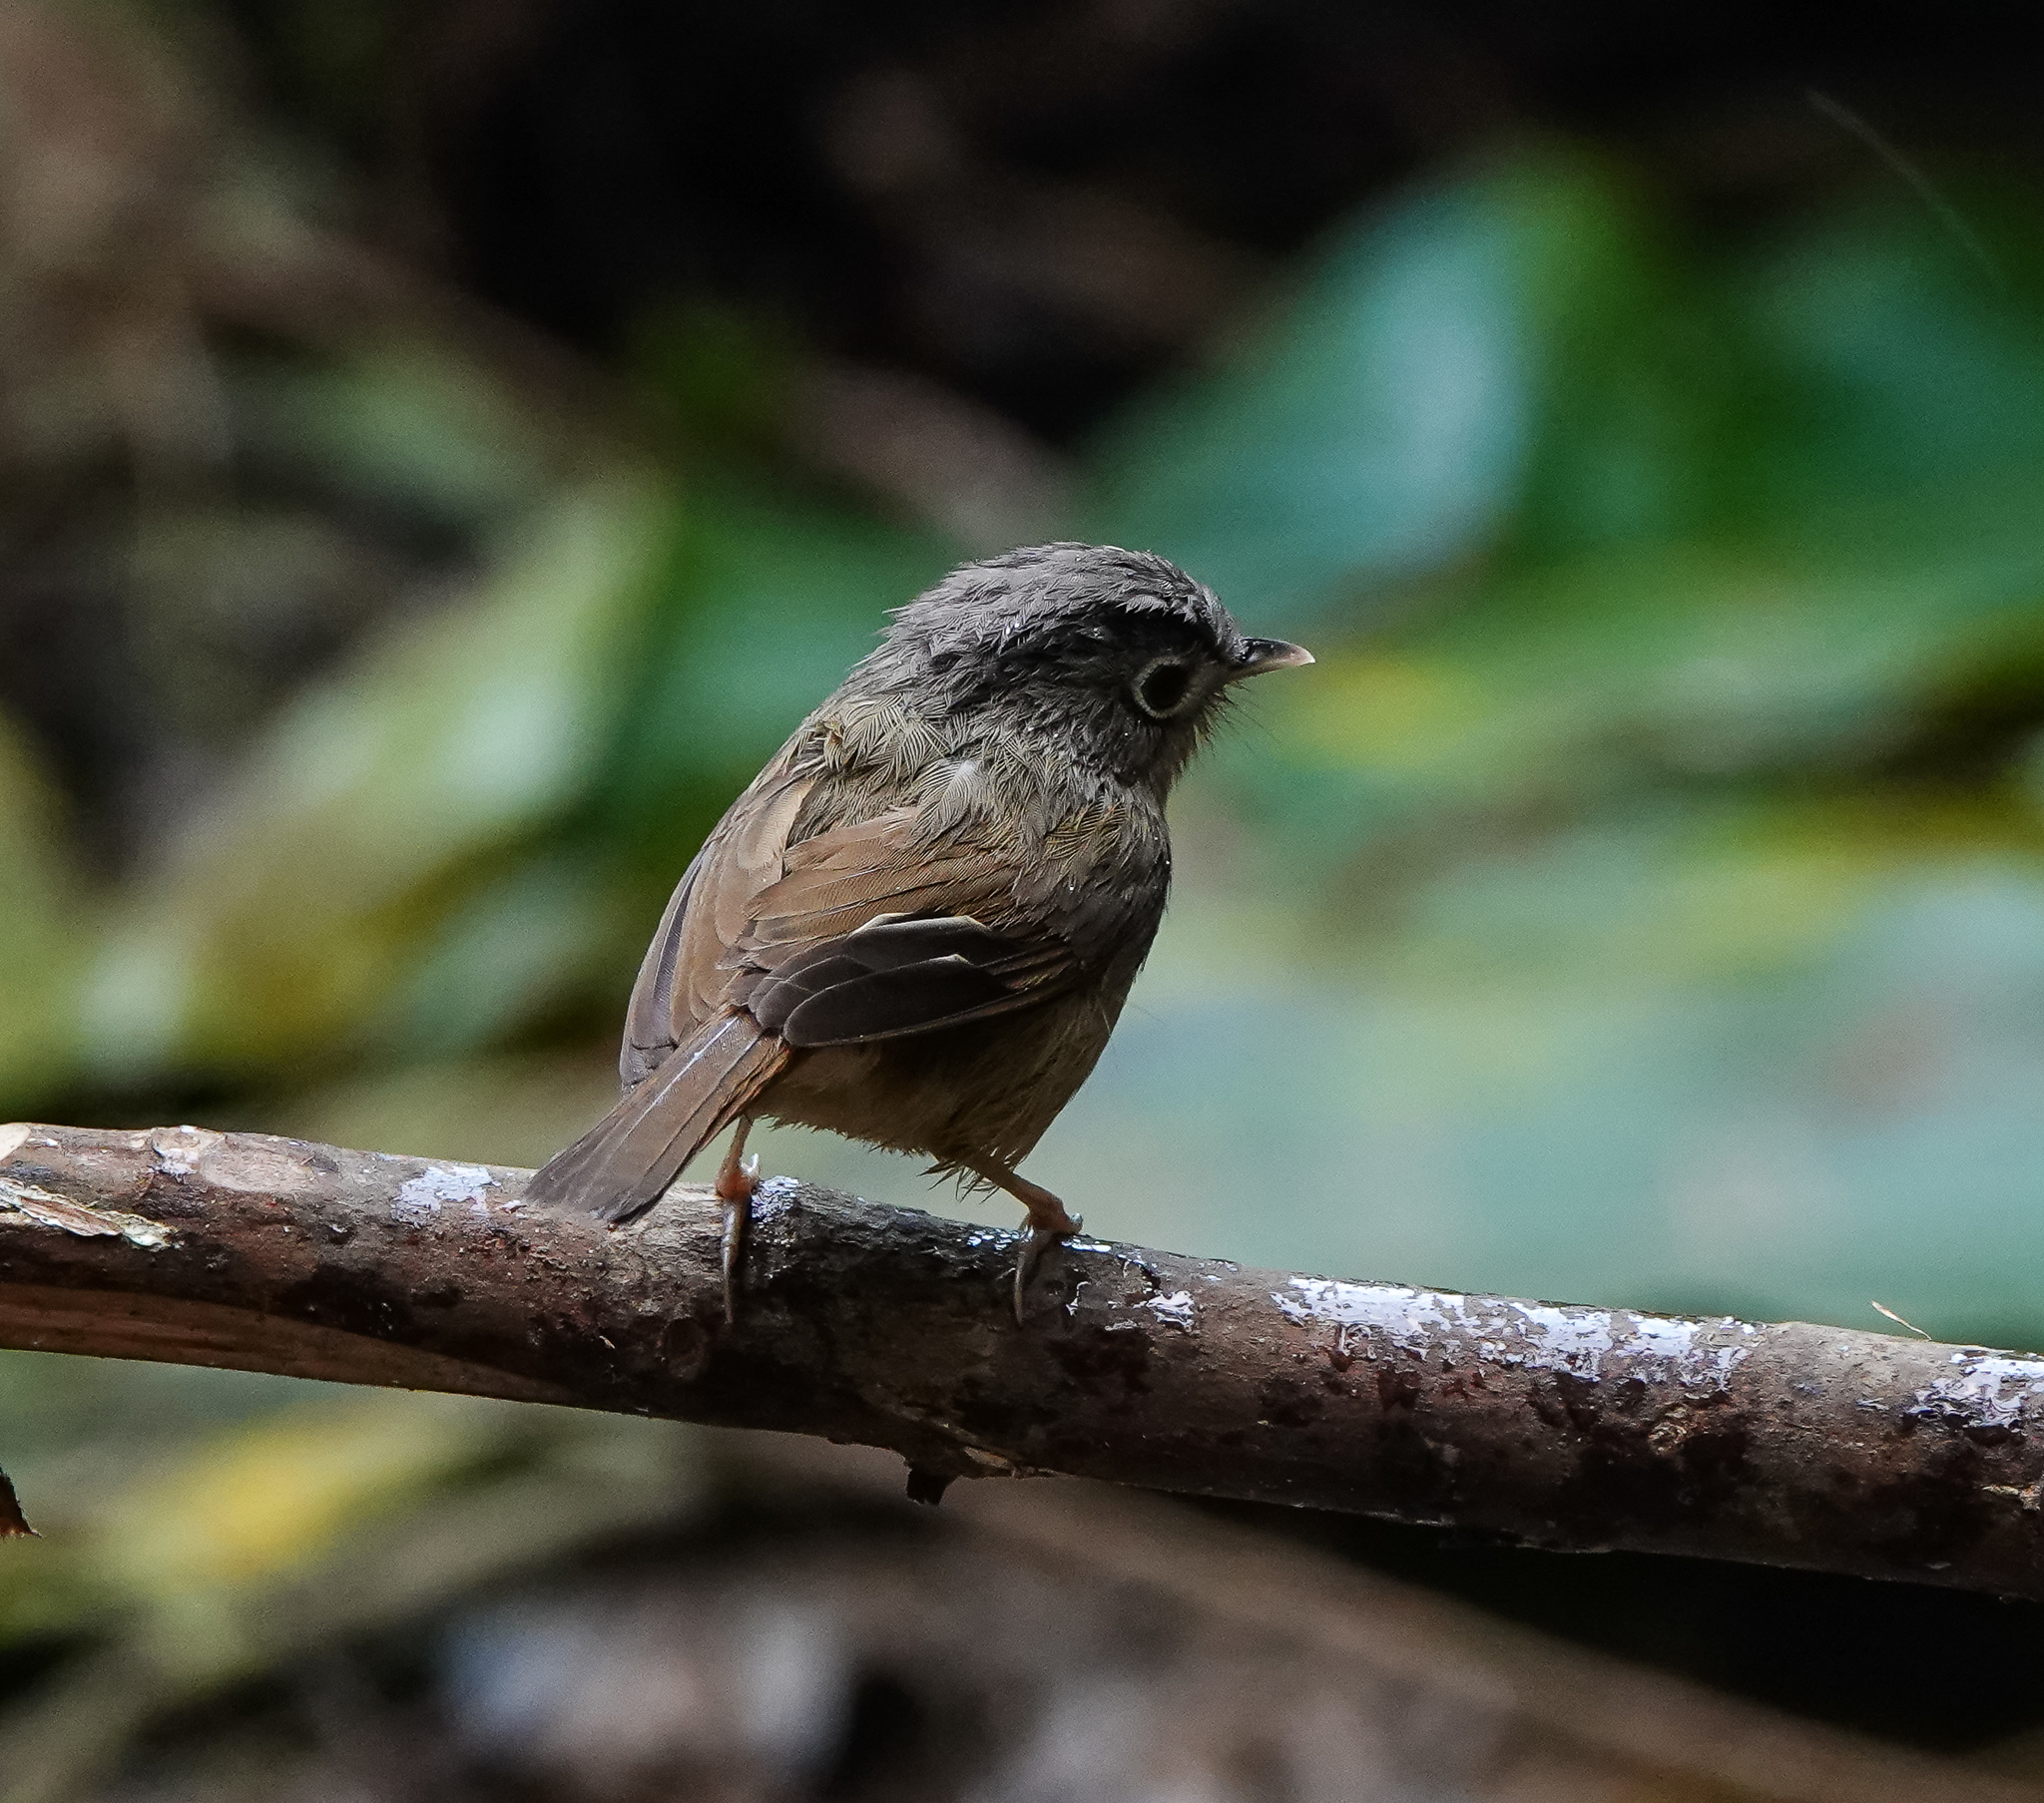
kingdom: Animalia
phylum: Chordata
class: Aves
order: Passeriformes
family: Pellorneidae
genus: Alcippe
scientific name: Alcippe nipalensis
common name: Nepal fulvetta
